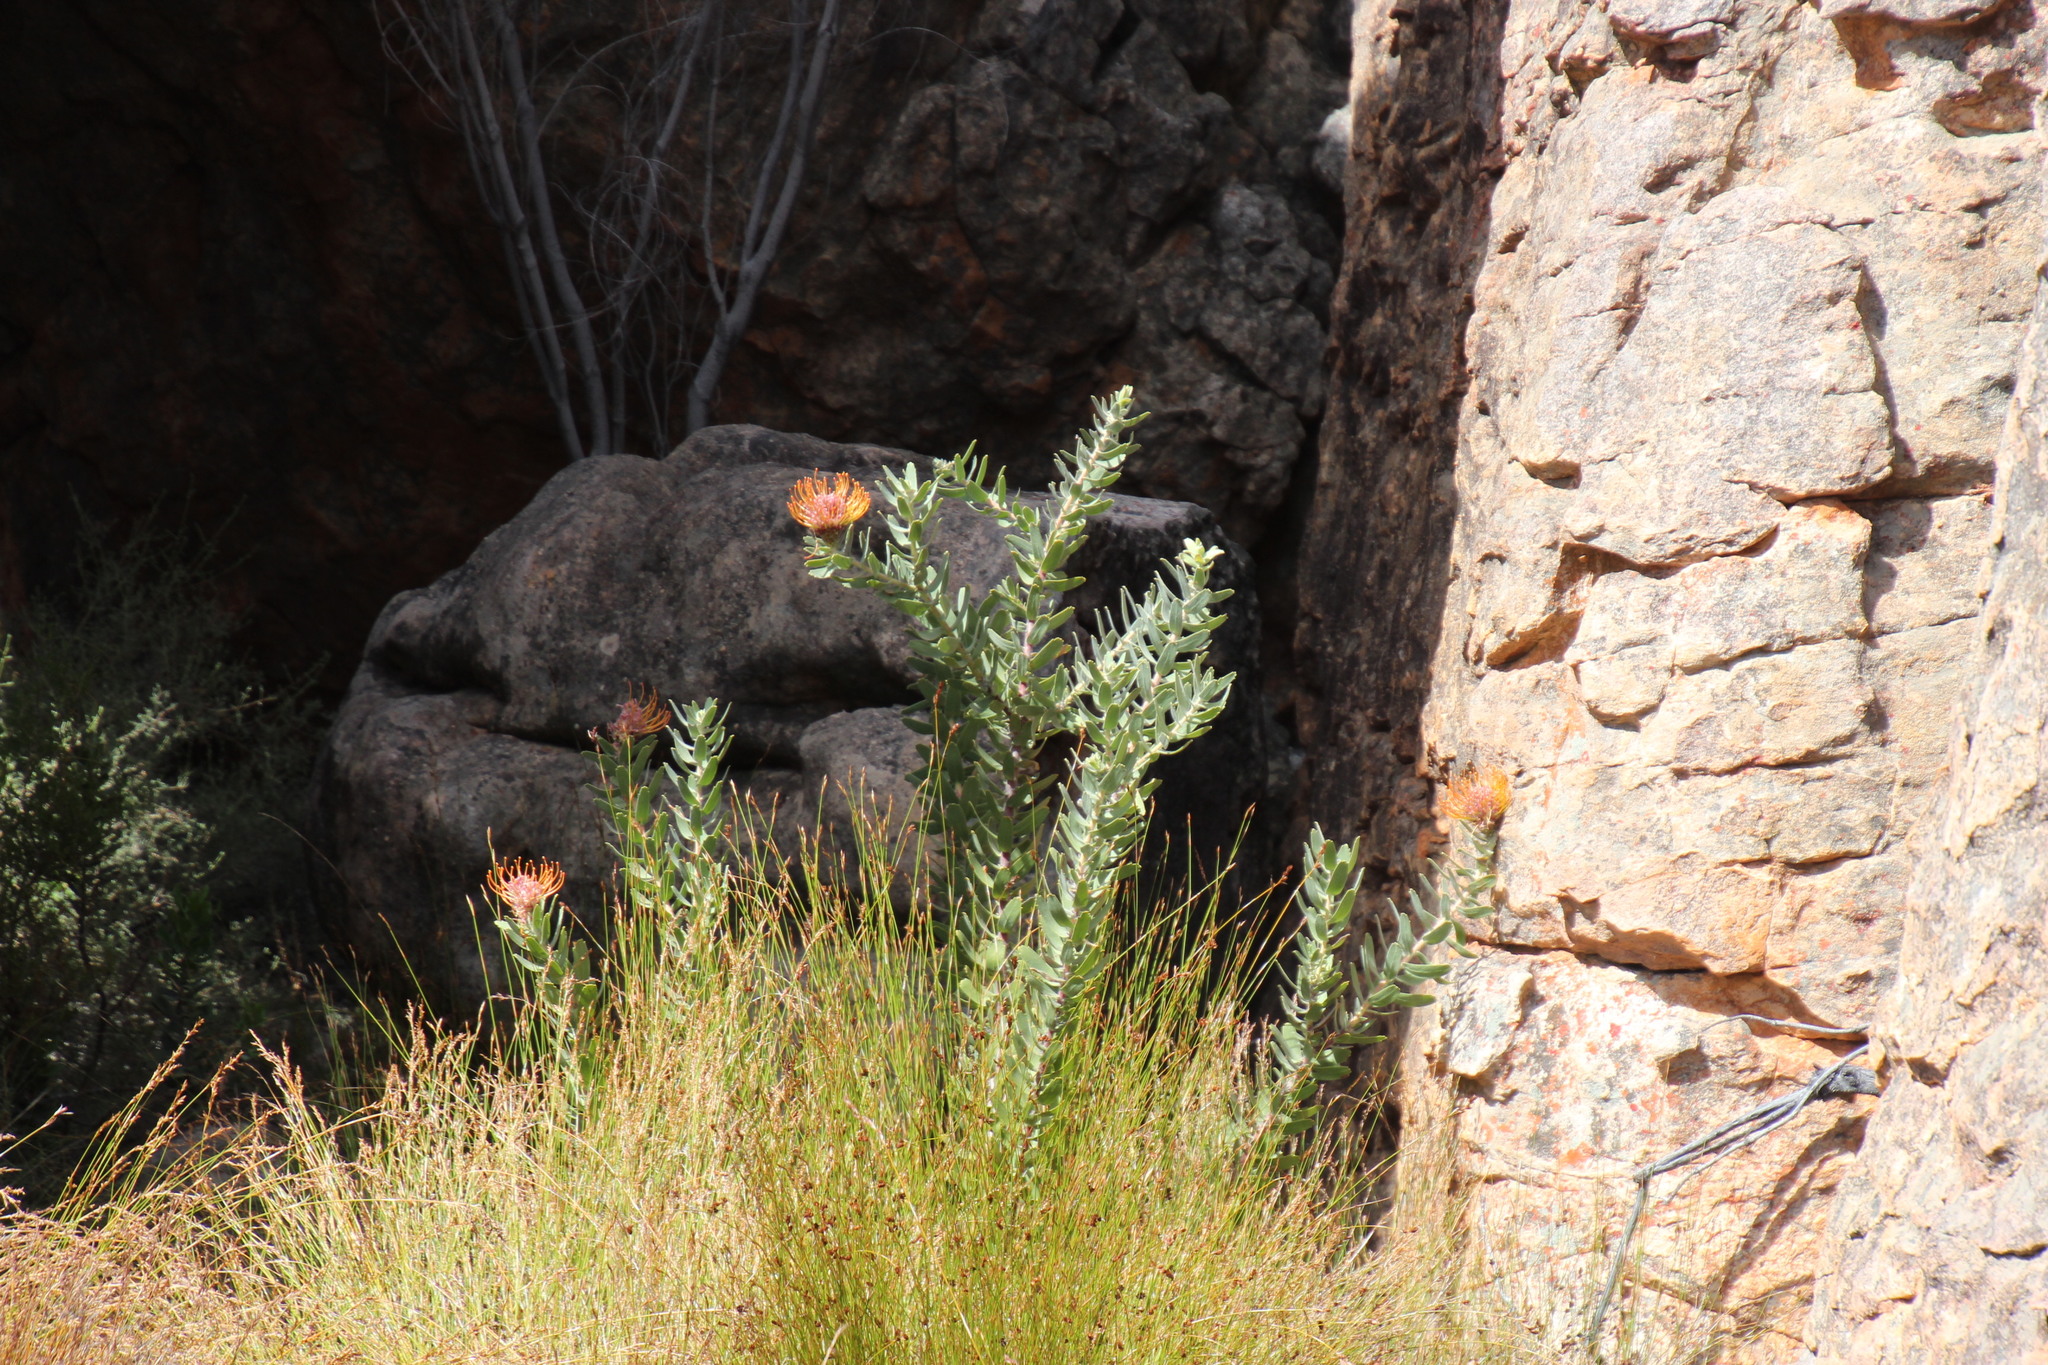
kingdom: Plantae
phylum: Tracheophyta
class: Magnoliopsida
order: Proteales
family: Proteaceae
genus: Leucospermum
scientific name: Leucospermum vestitum
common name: Silky-hair pincushion
